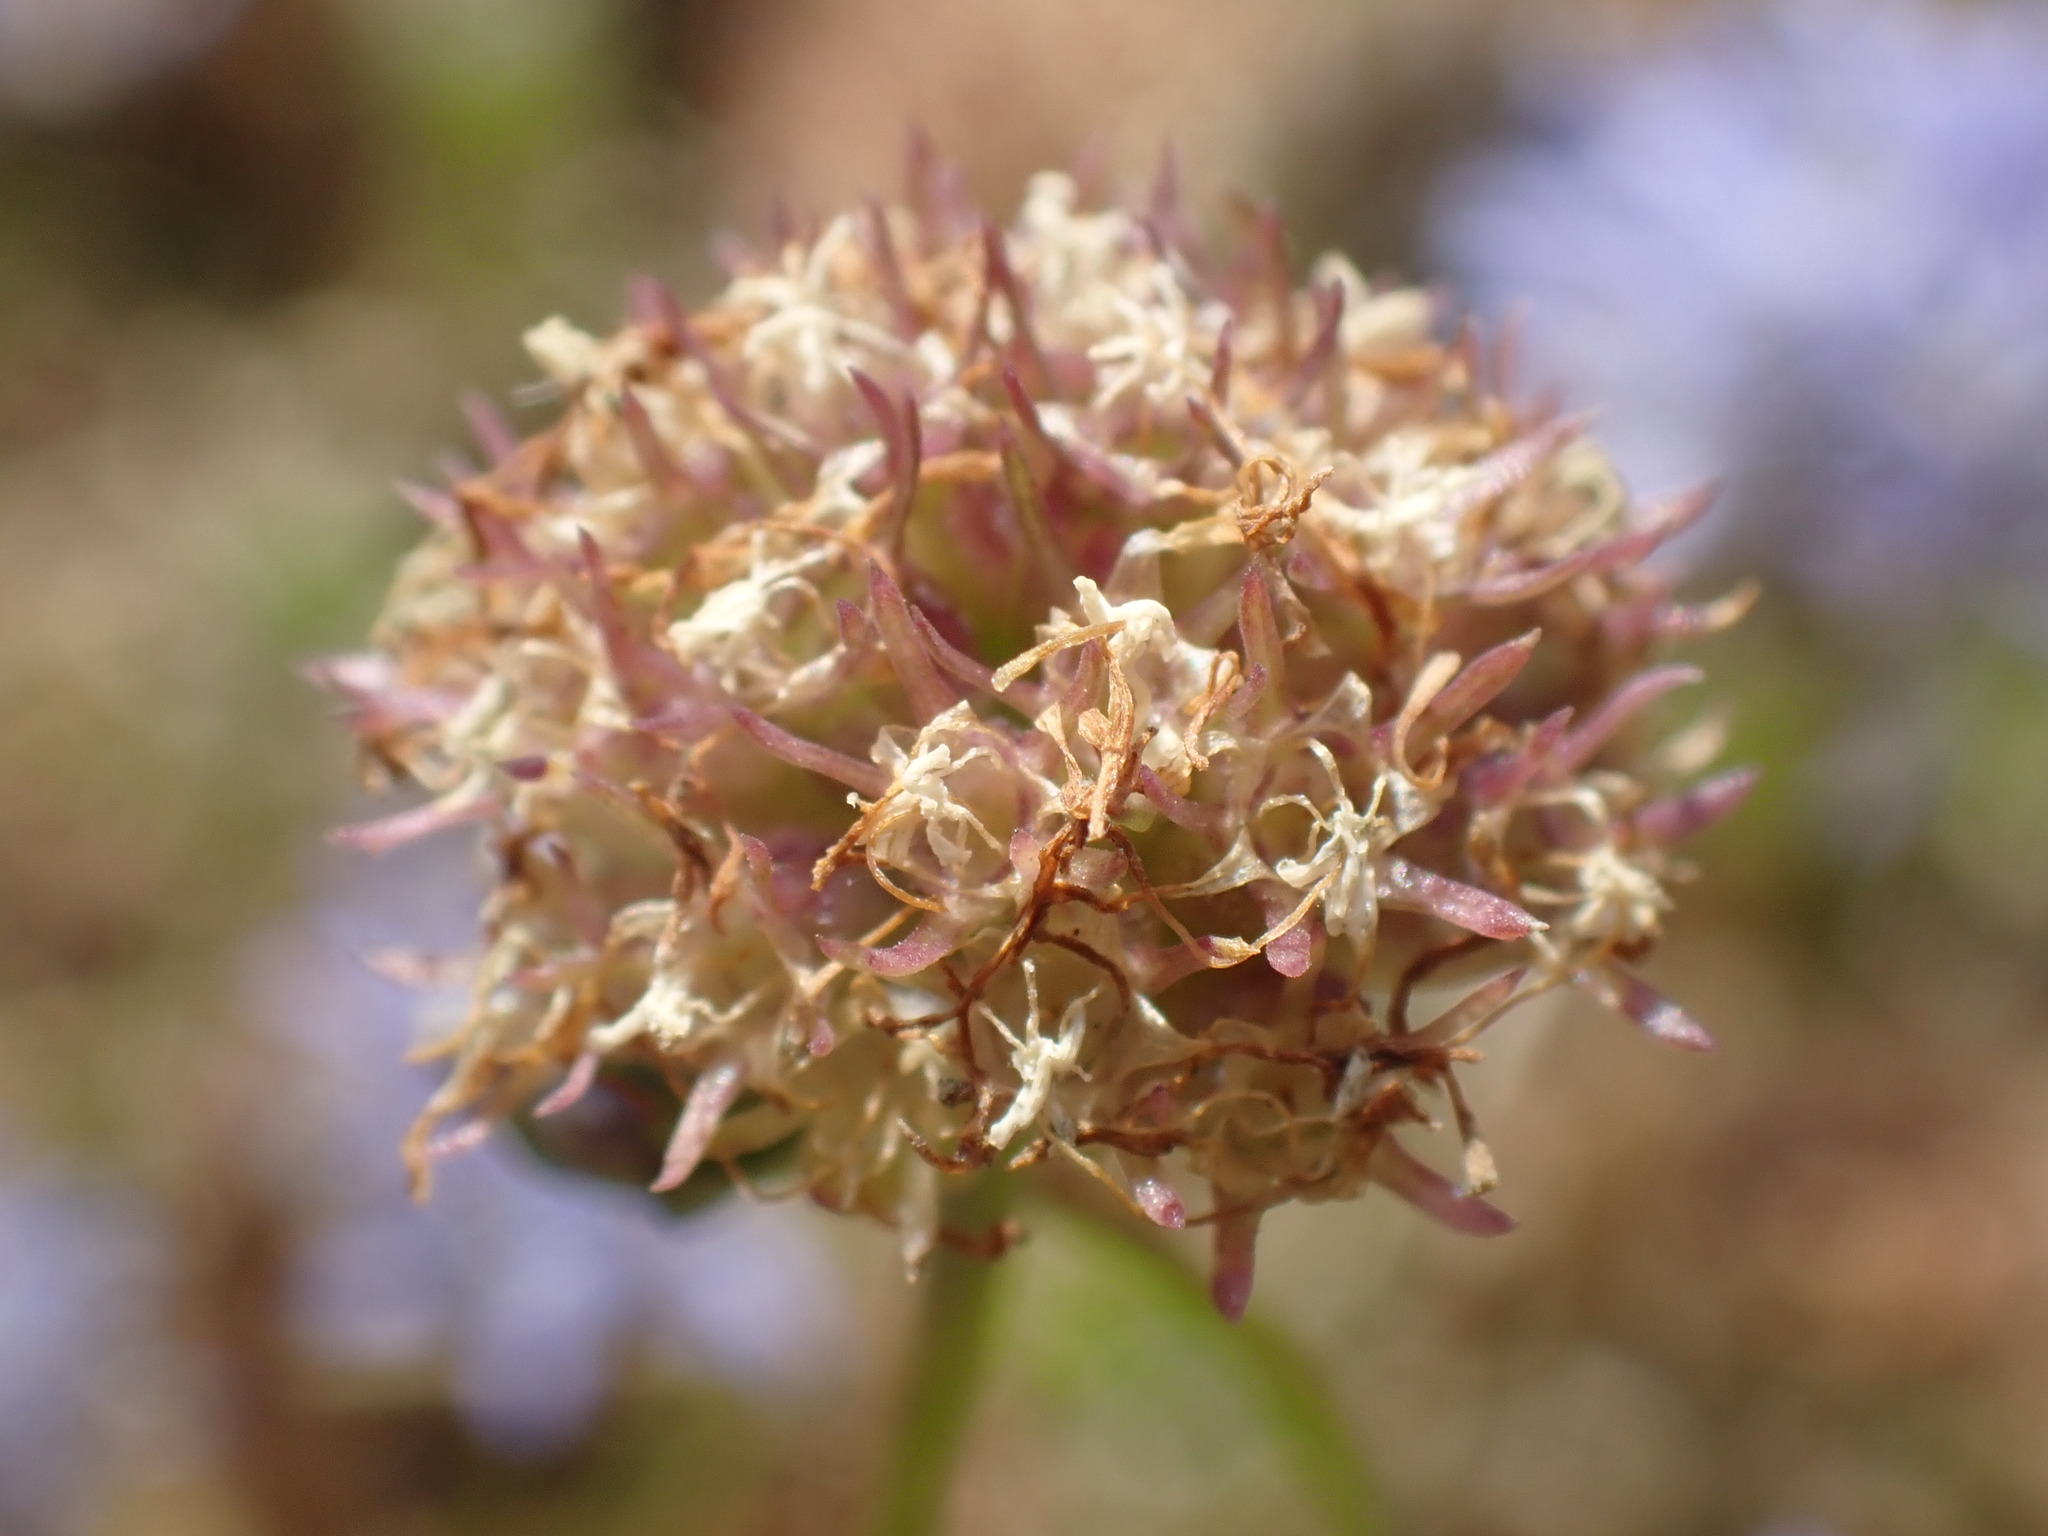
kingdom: Plantae
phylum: Tracheophyta
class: Magnoliopsida
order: Asterales
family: Campanulaceae
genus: Jasione
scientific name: Jasione montana
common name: Sheep's-bit
